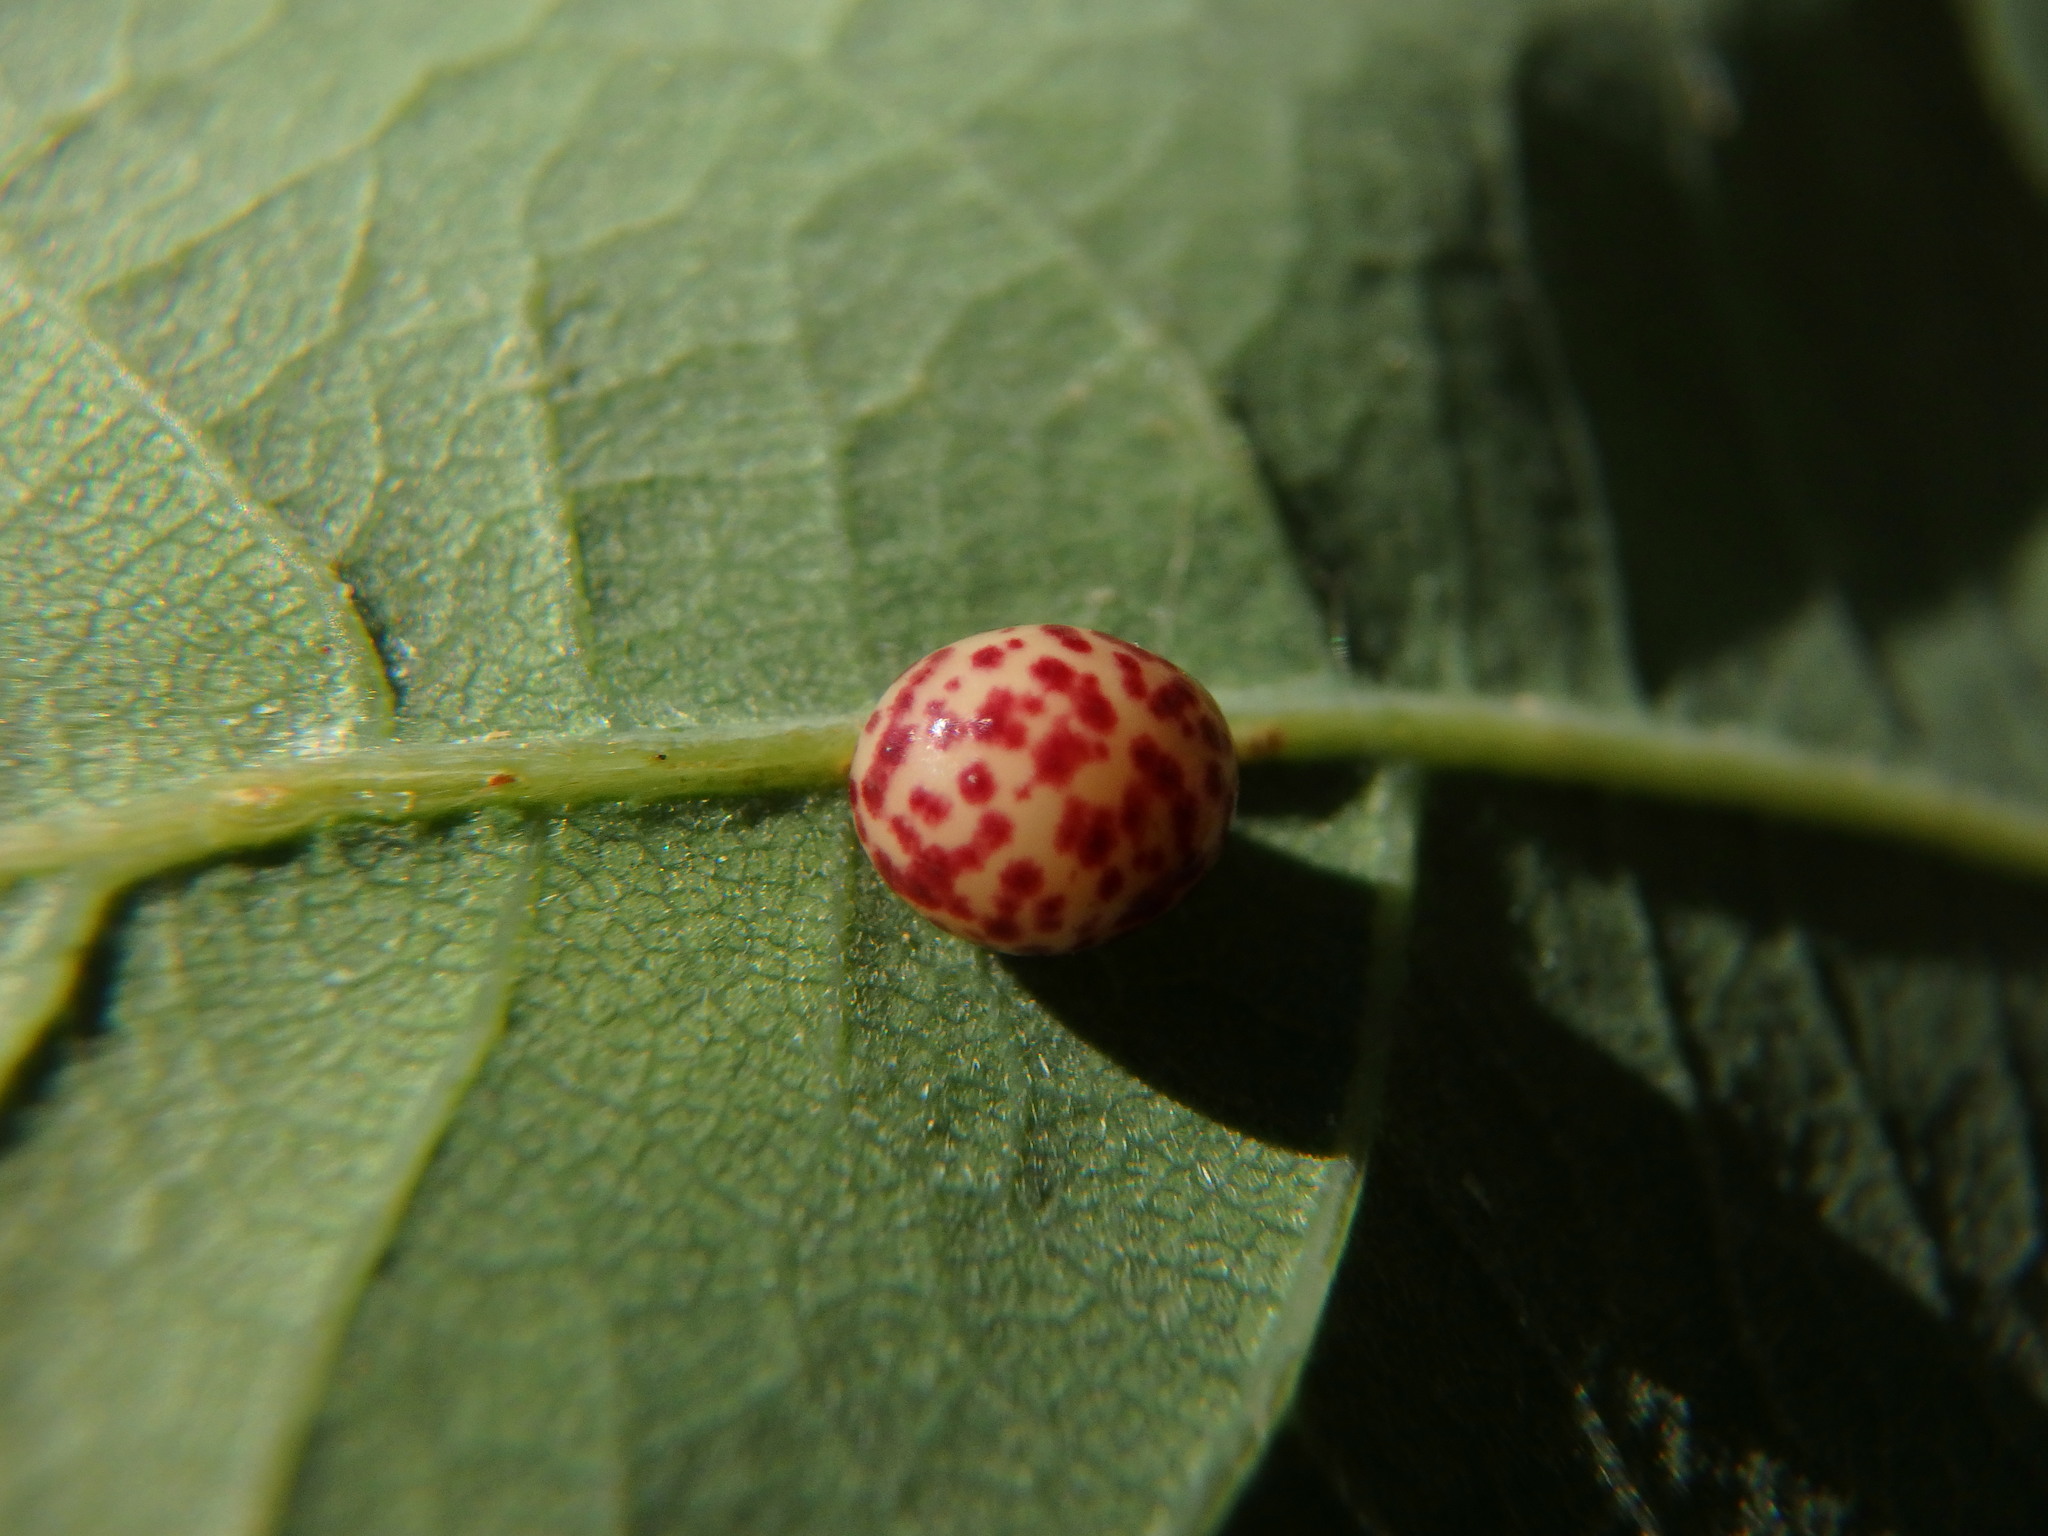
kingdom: Animalia
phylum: Arthropoda
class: Insecta
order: Hymenoptera
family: Cynipidae
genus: Neuroterus
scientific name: Neuroterus anthracinus
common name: Oyster gall
